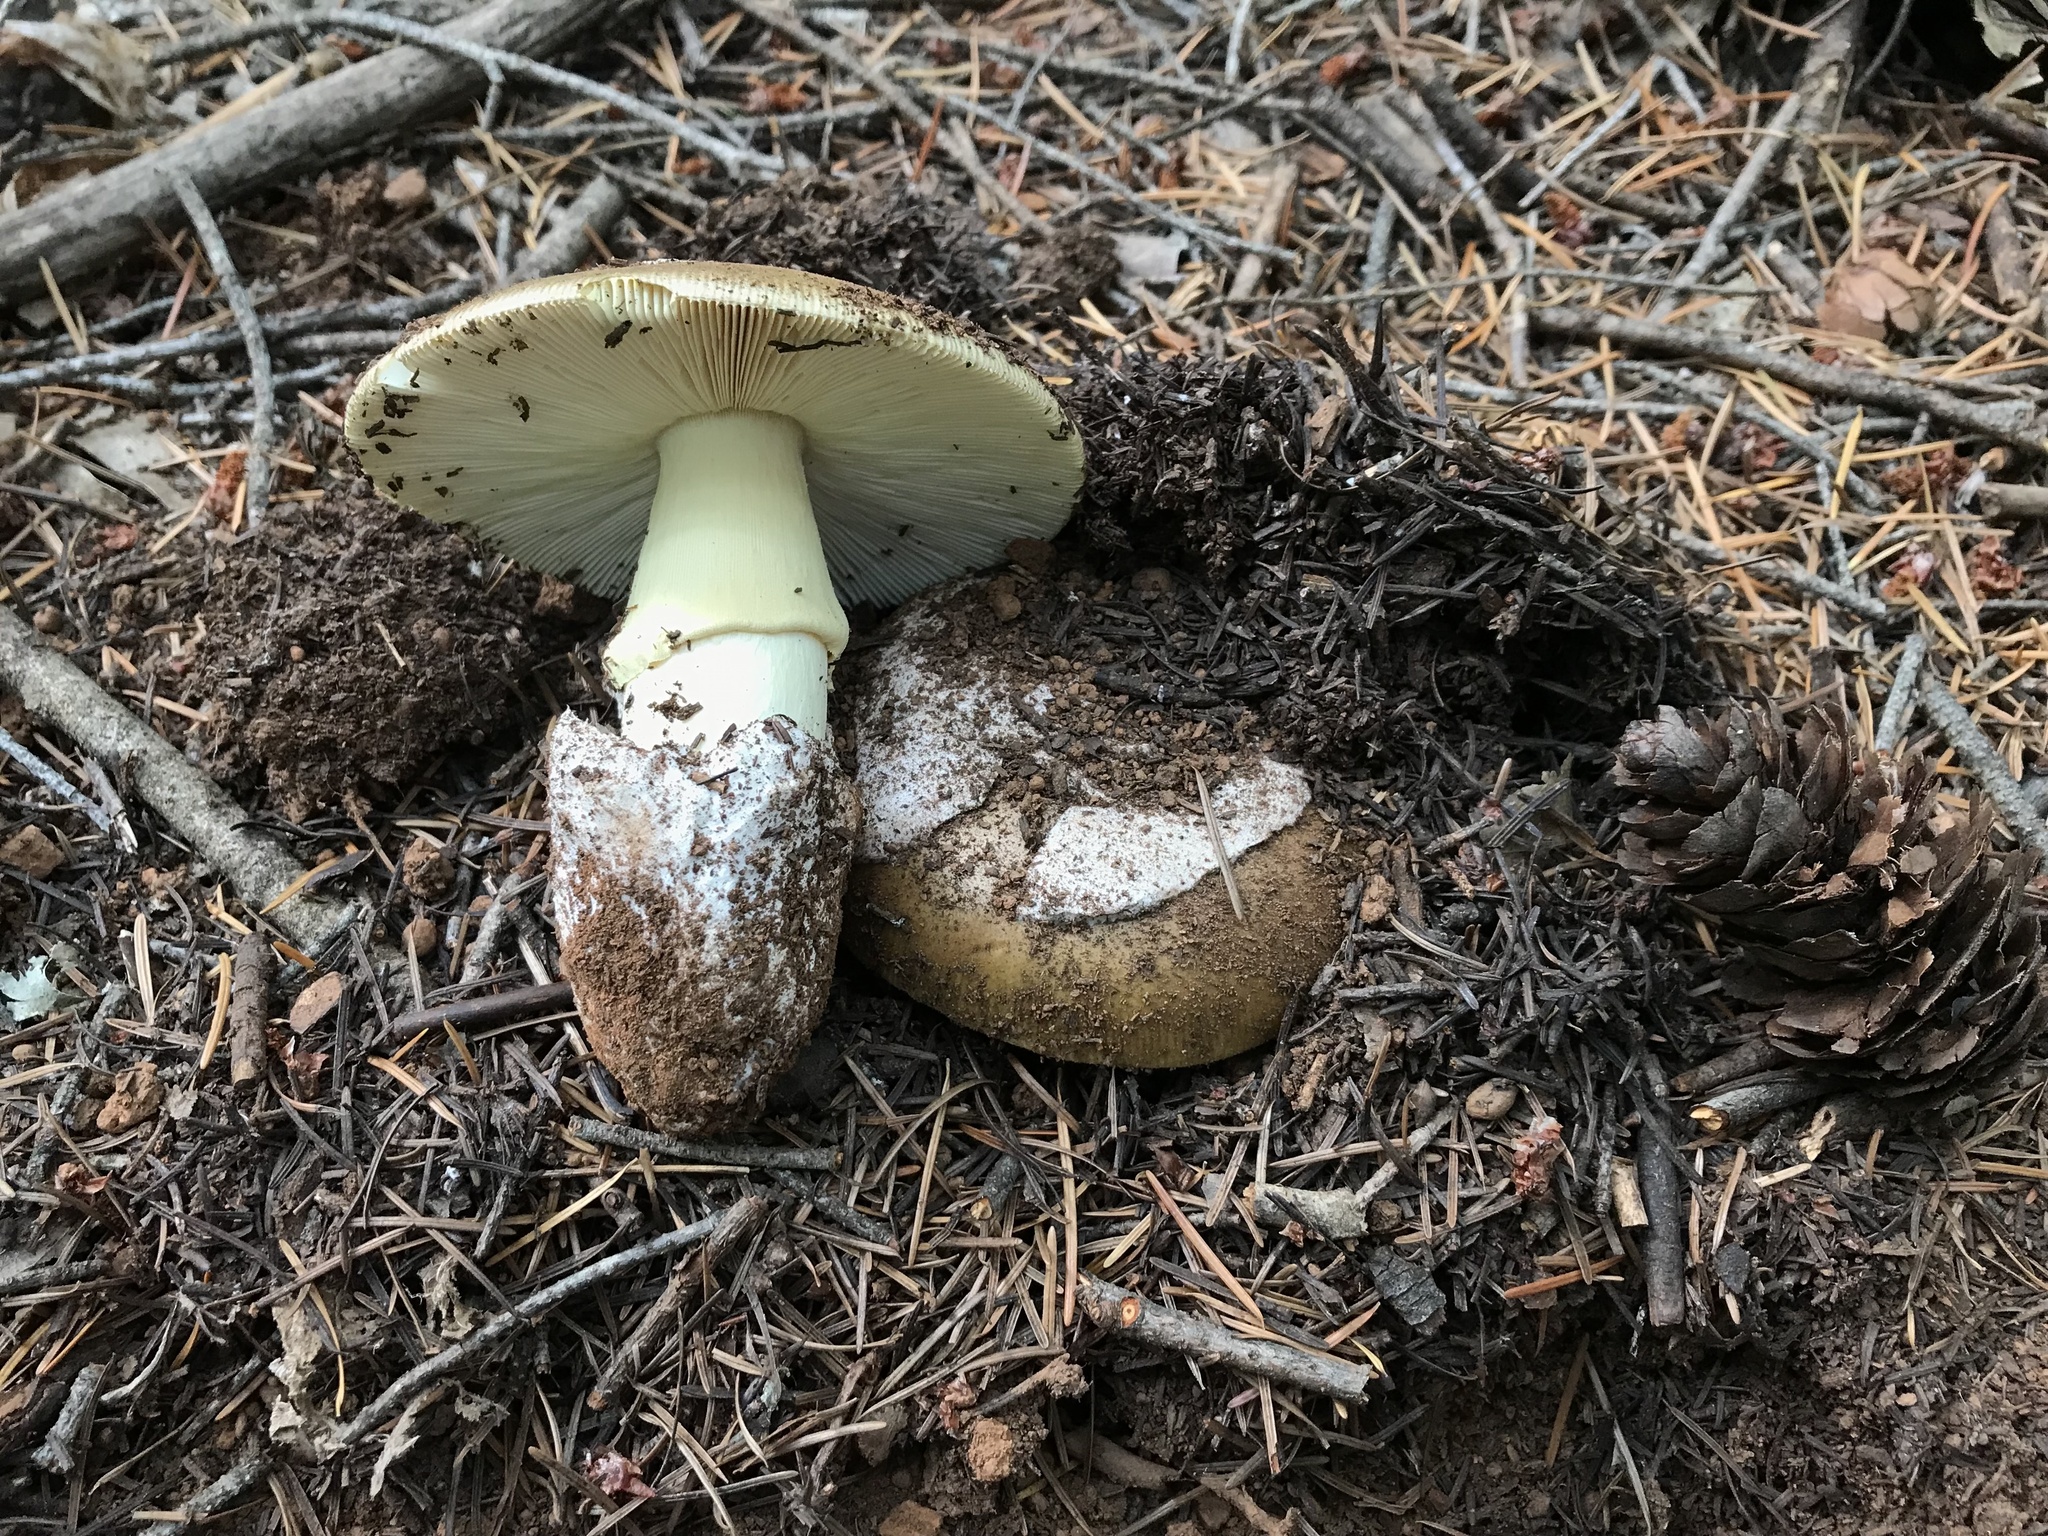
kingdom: Fungi
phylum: Basidiomycota
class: Agaricomycetes
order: Agaricales
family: Amanitaceae
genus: Amanita
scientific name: Amanita calyptroderma
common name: Coccora
